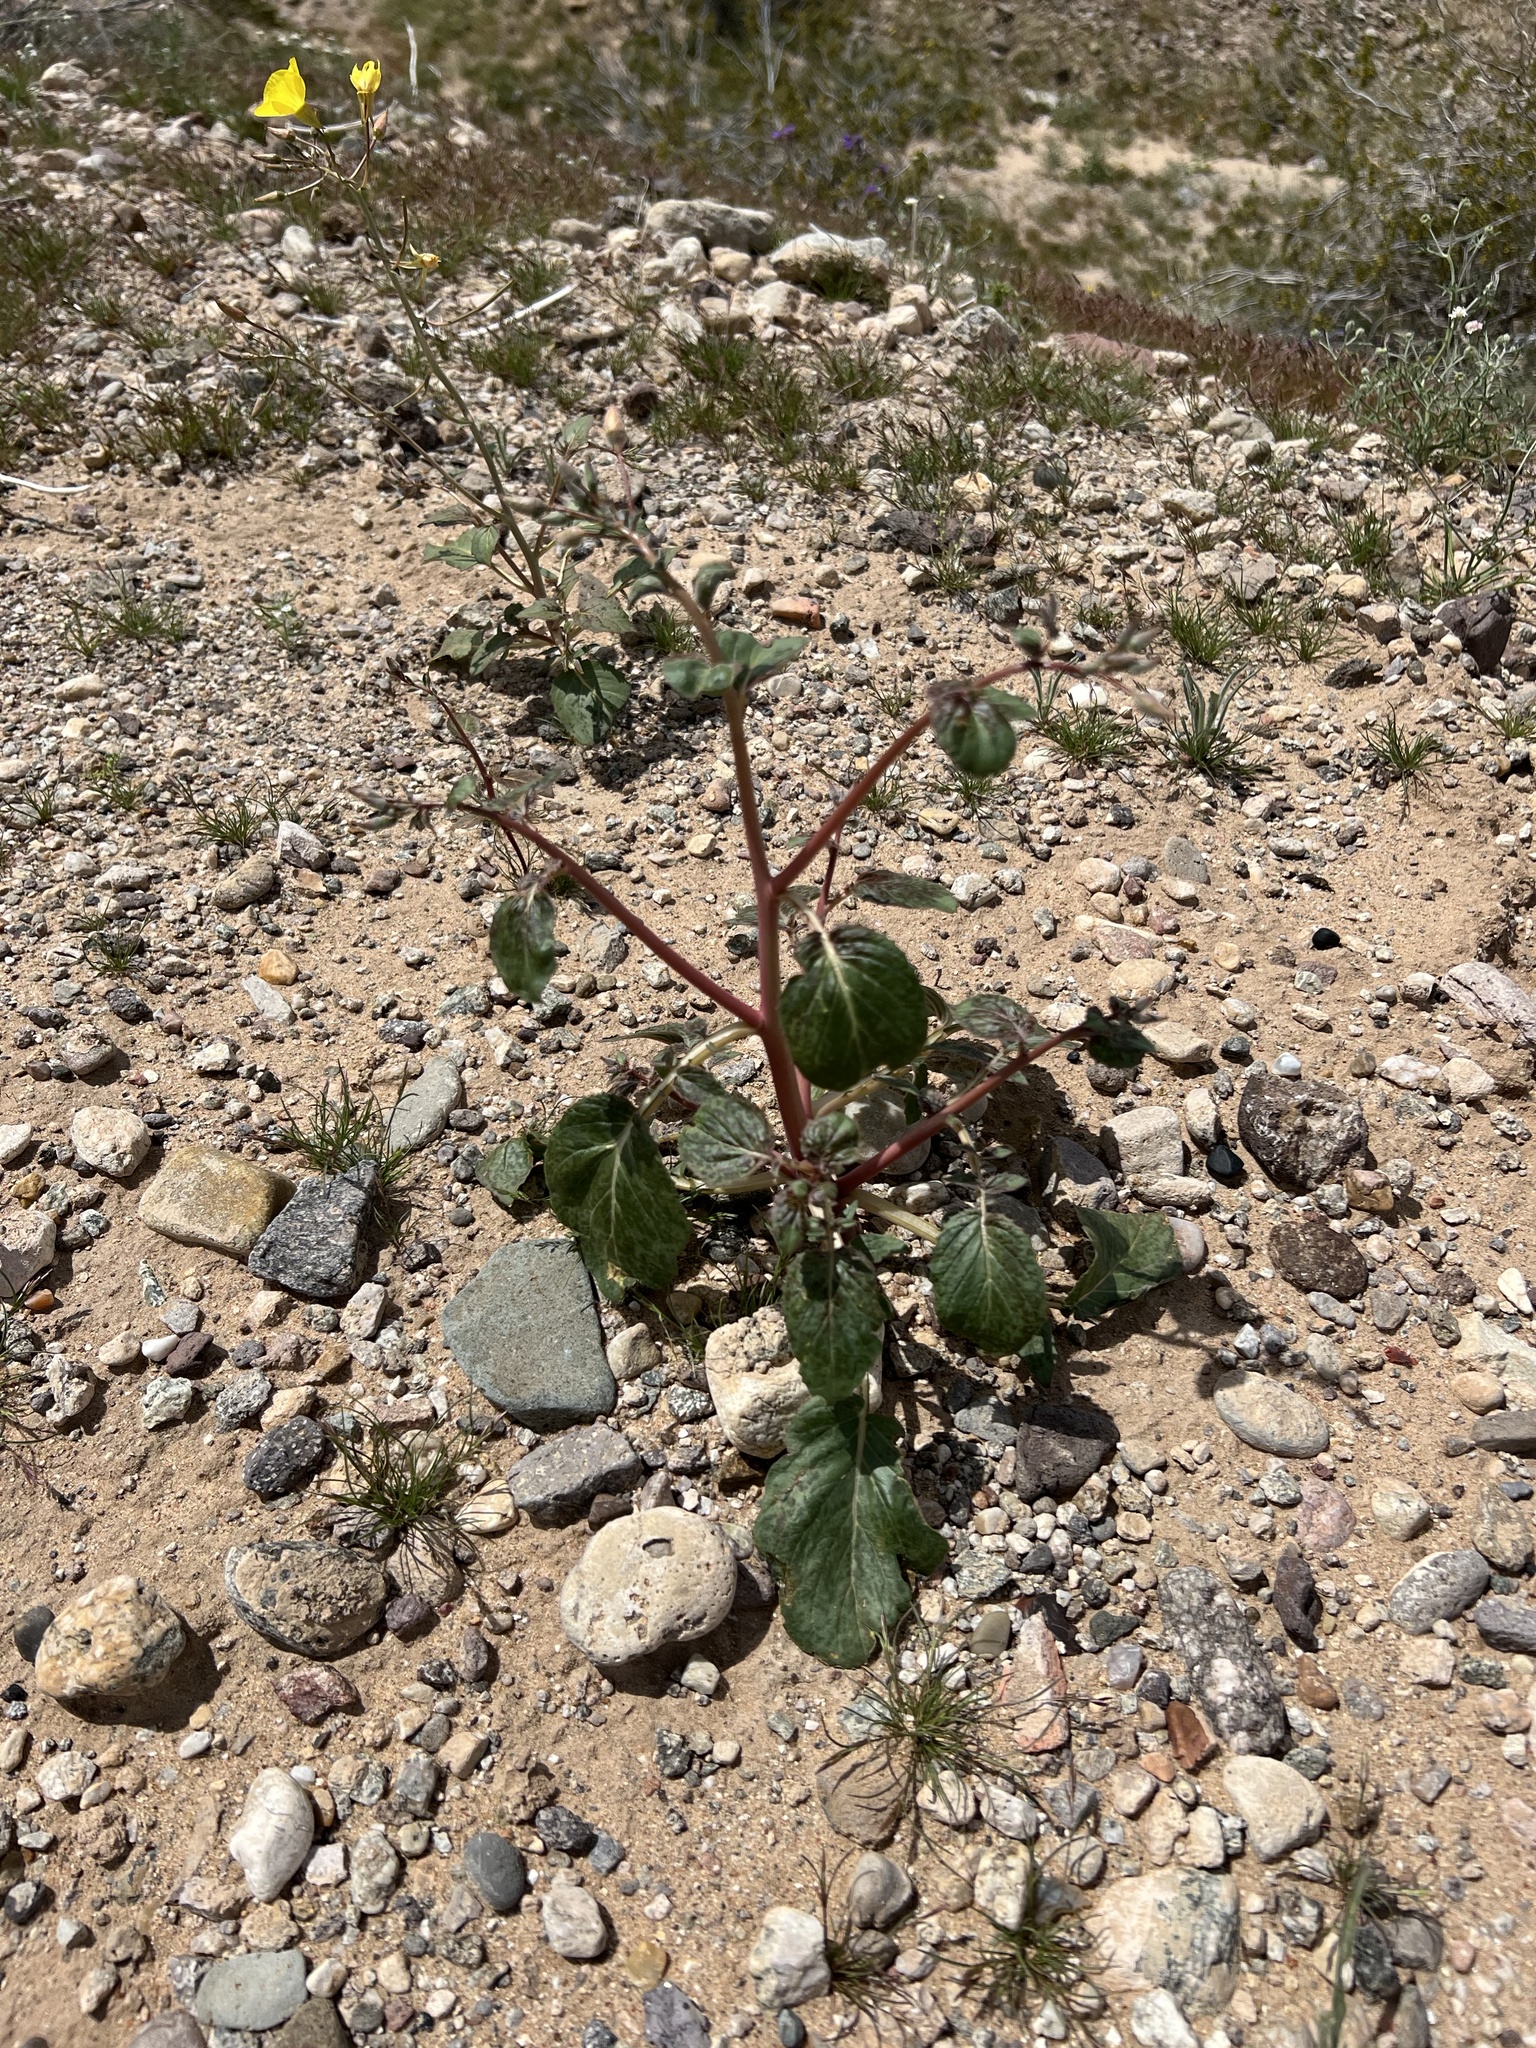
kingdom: Plantae
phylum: Tracheophyta
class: Magnoliopsida
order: Myrtales
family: Onagraceae
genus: Chylismia
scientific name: Chylismia brevipes
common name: Yellow cups
